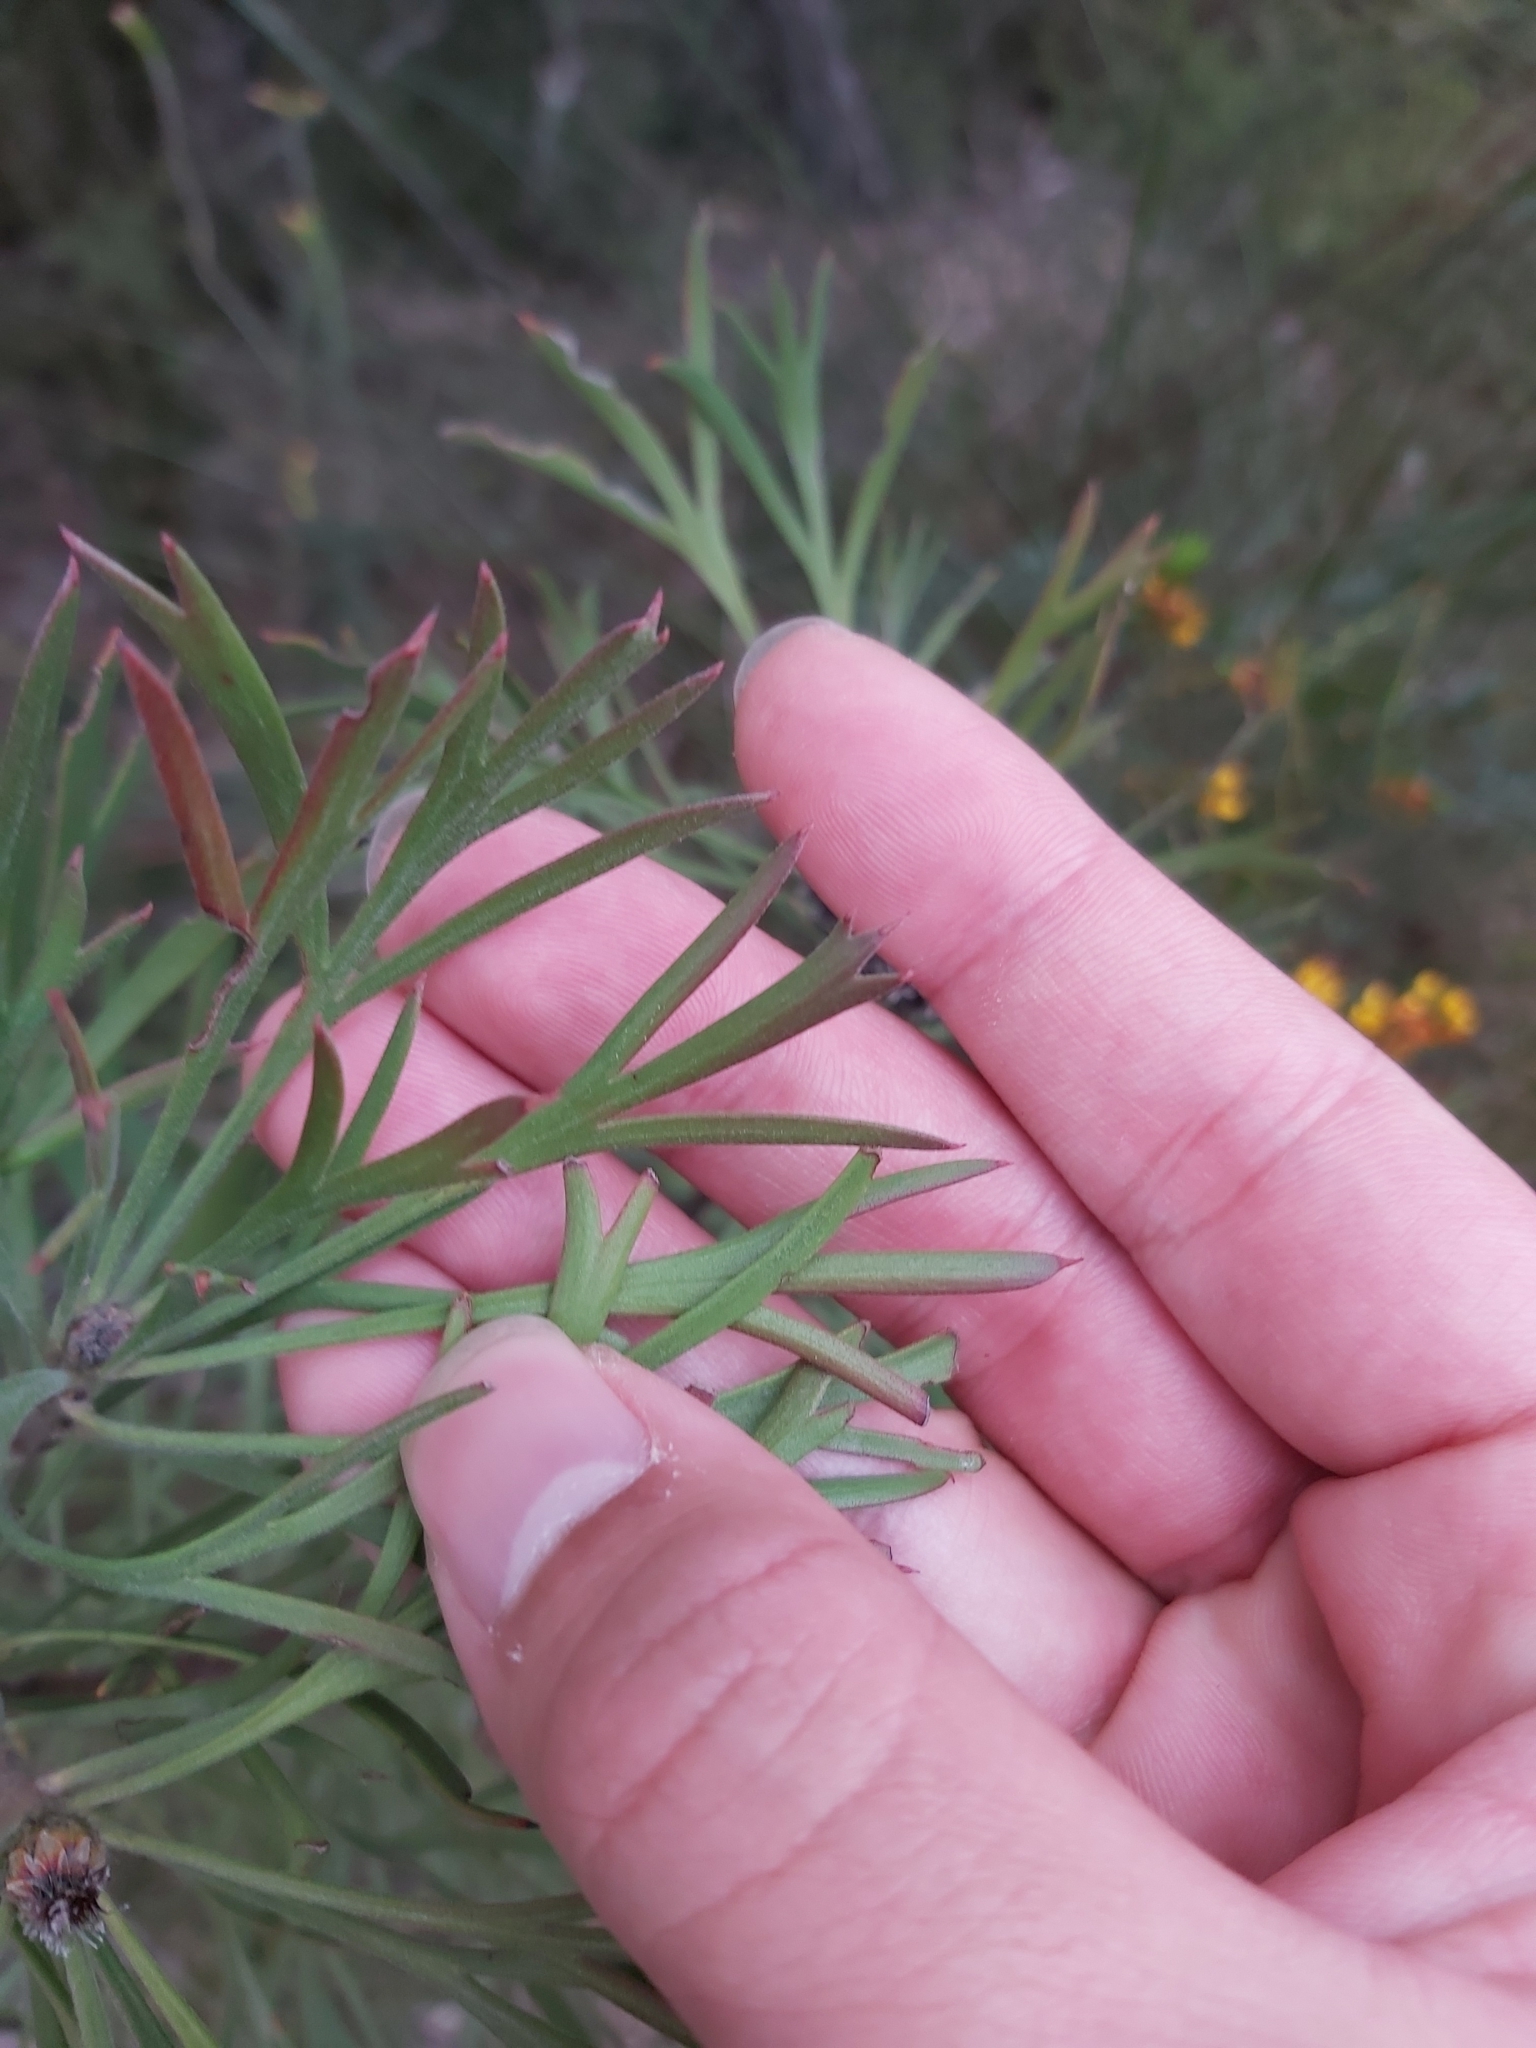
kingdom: Plantae
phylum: Tracheophyta
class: Magnoliopsida
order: Proteales
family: Proteaceae
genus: Isopogon
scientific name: Isopogon anemonifolius
